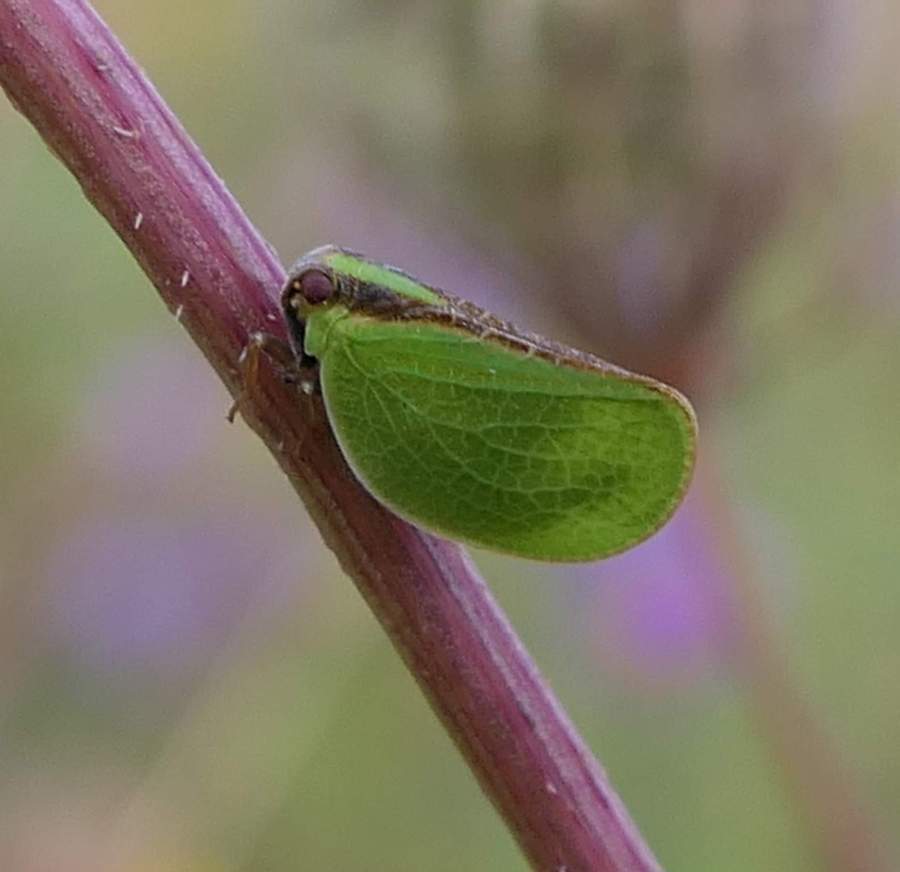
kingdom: Animalia
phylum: Arthropoda
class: Insecta
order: Hemiptera
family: Acanaloniidae
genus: Acanalonia
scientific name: Acanalonia bivittata
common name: Two-striped planthopper
